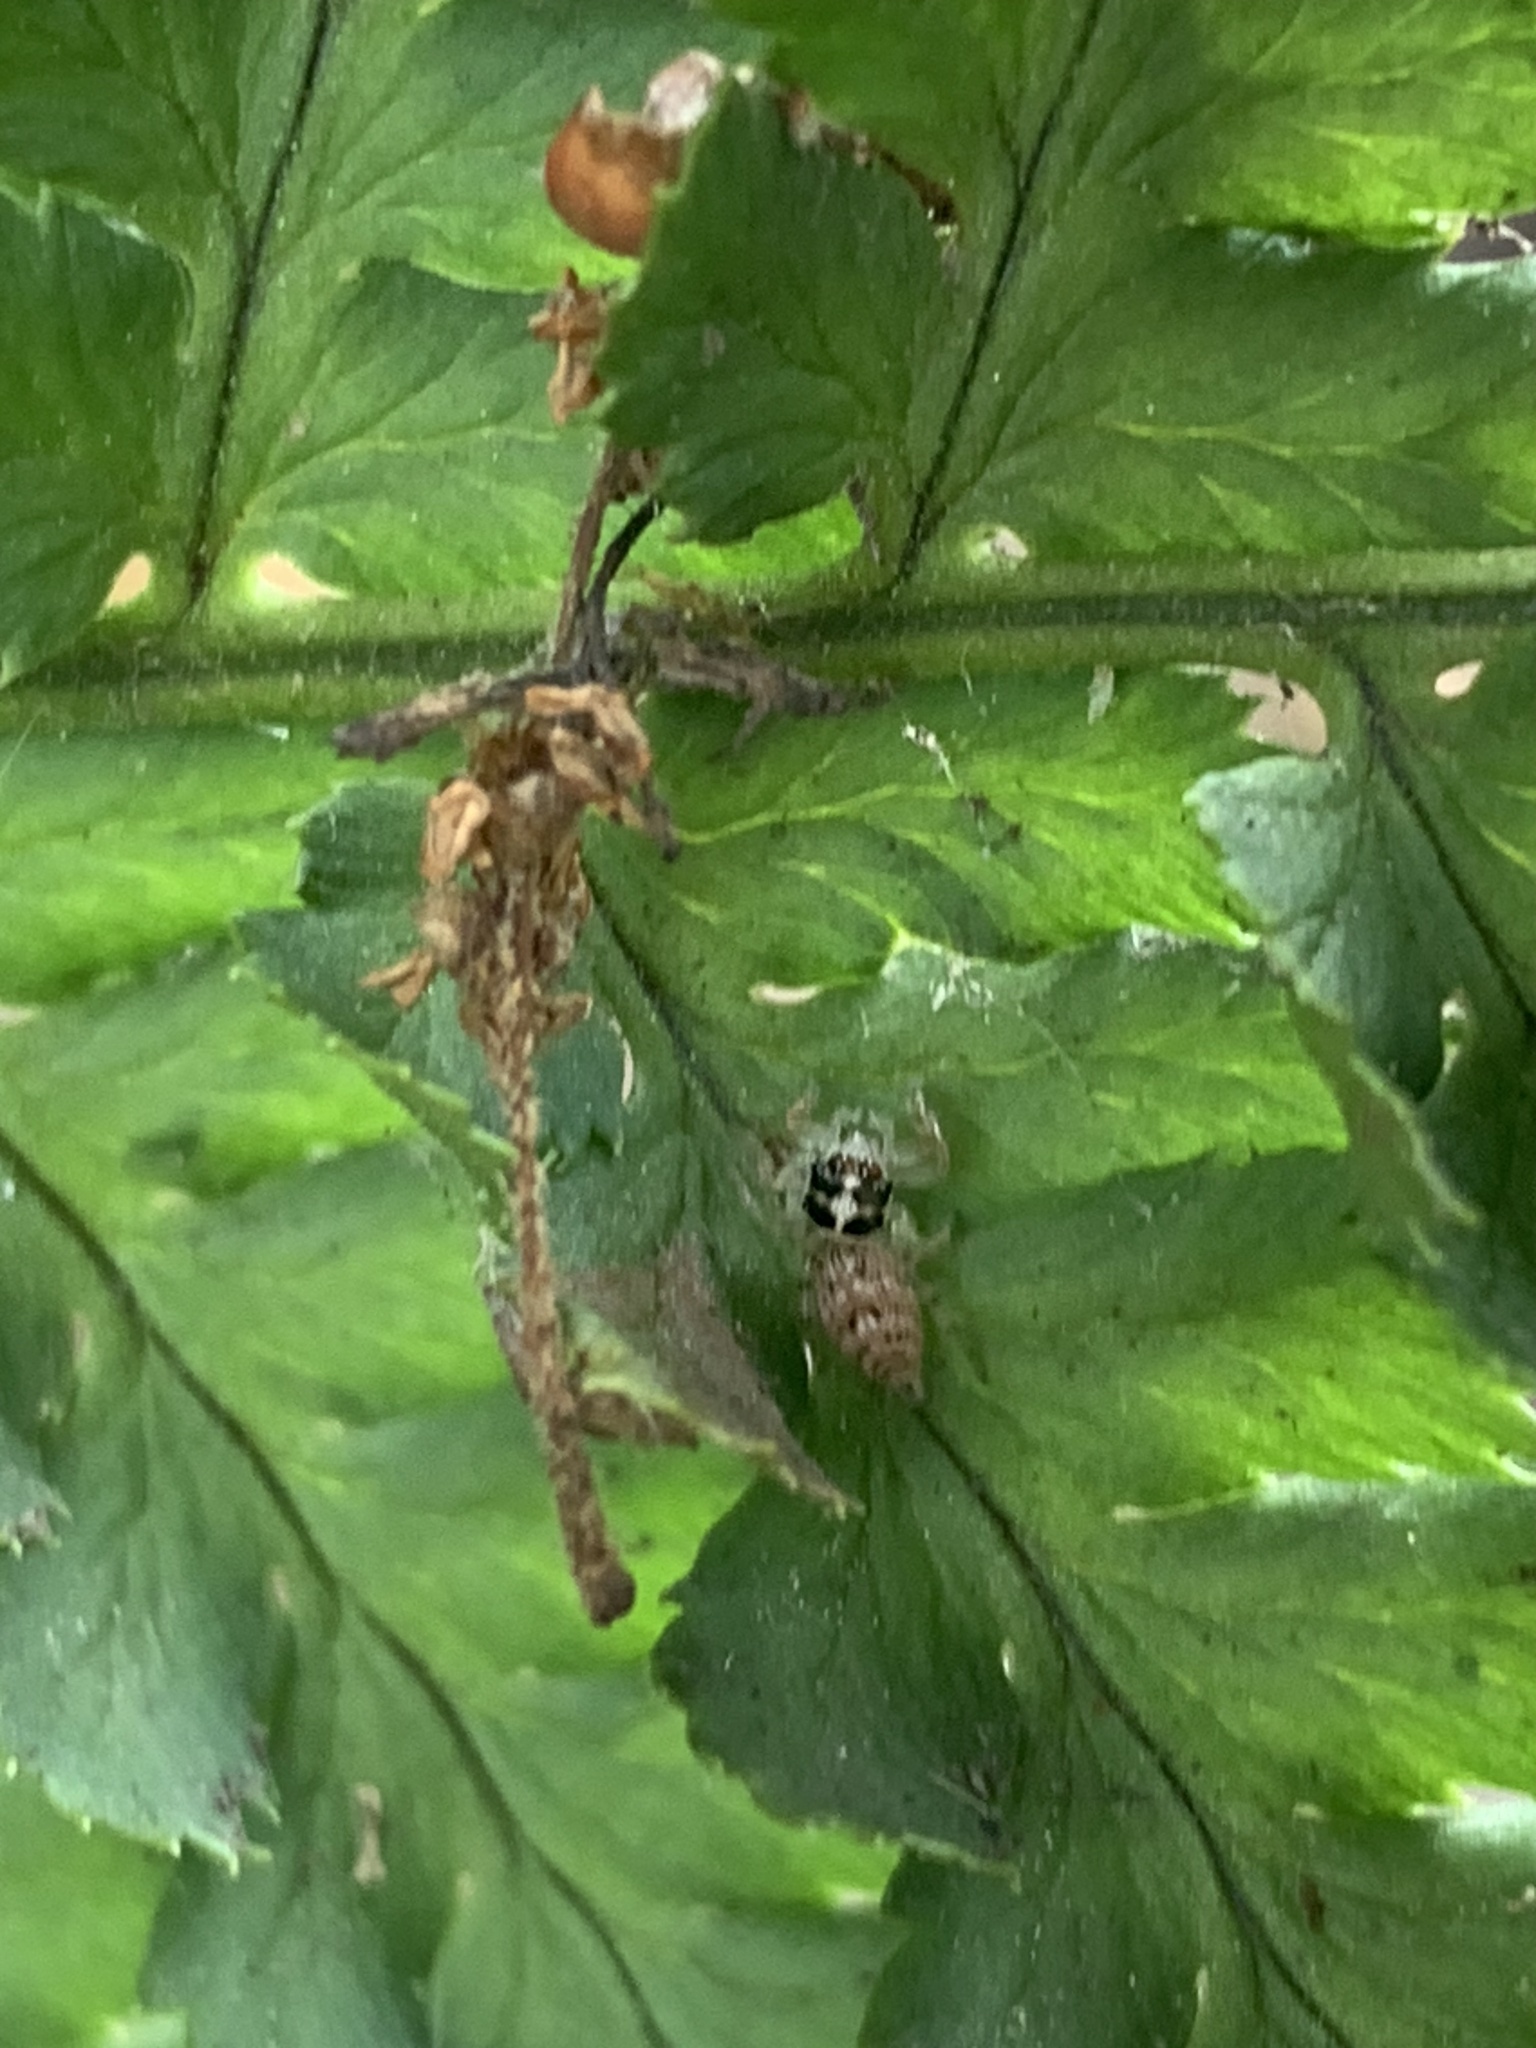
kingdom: Animalia
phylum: Arthropoda
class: Arachnida
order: Araneae
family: Salticidae
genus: Colonus
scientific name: Colonus hesperus
